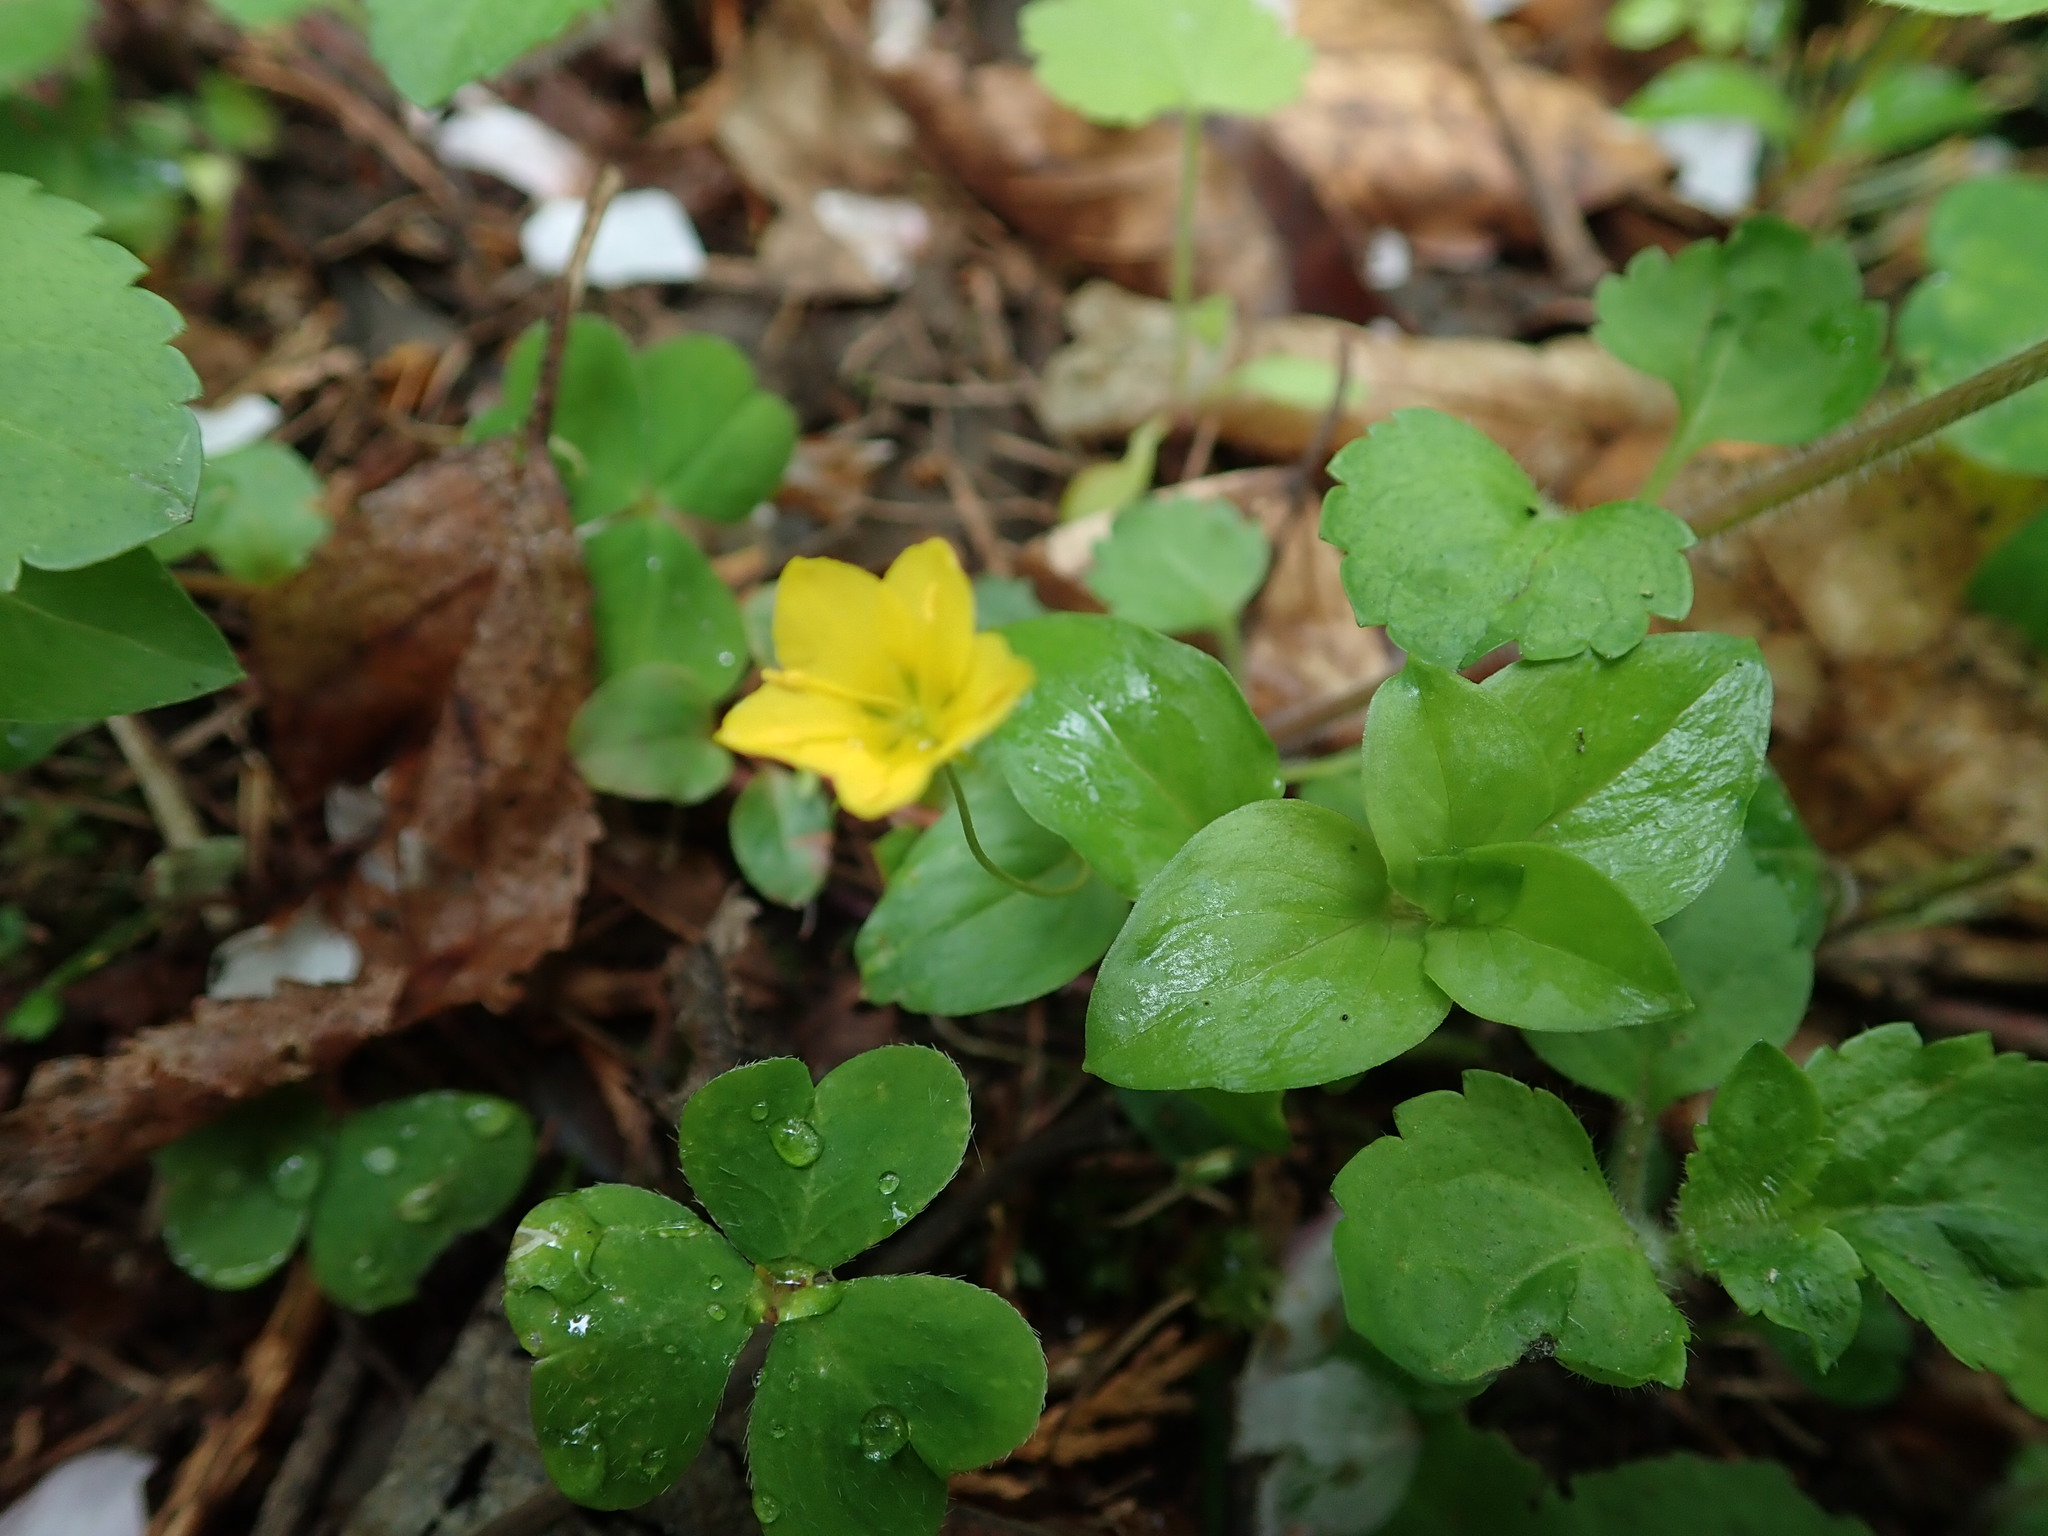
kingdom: Plantae
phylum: Tracheophyta
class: Magnoliopsida
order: Ericales
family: Primulaceae
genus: Lysimachia
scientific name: Lysimachia nemorum
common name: Yellow pimpernel
